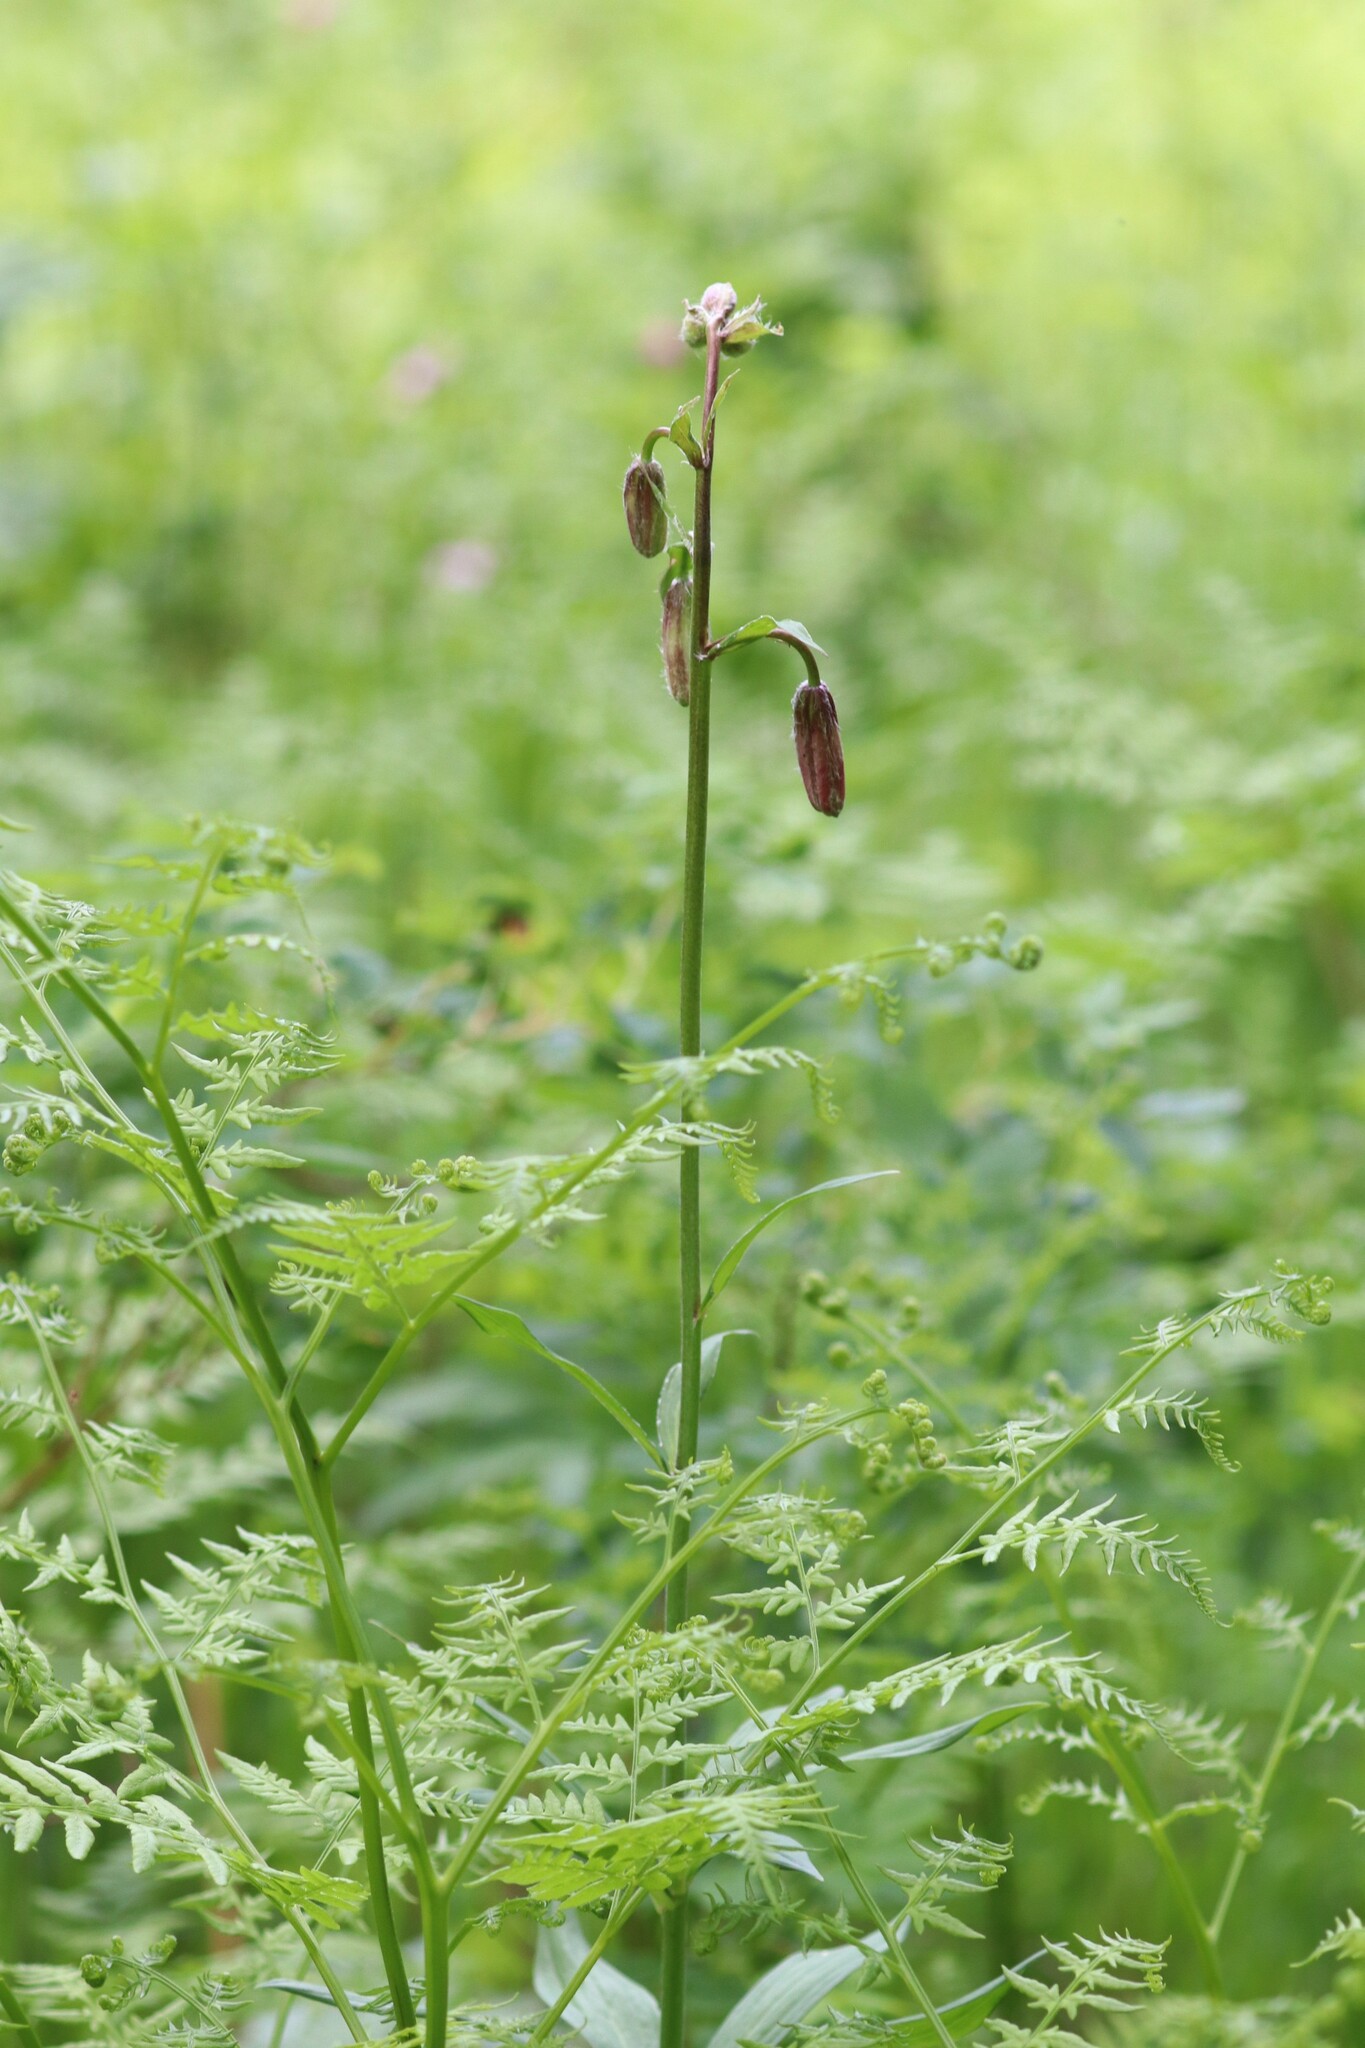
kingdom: Plantae
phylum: Tracheophyta
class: Liliopsida
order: Liliales
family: Liliaceae
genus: Lilium
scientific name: Lilium martagon
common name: Martagon lily
